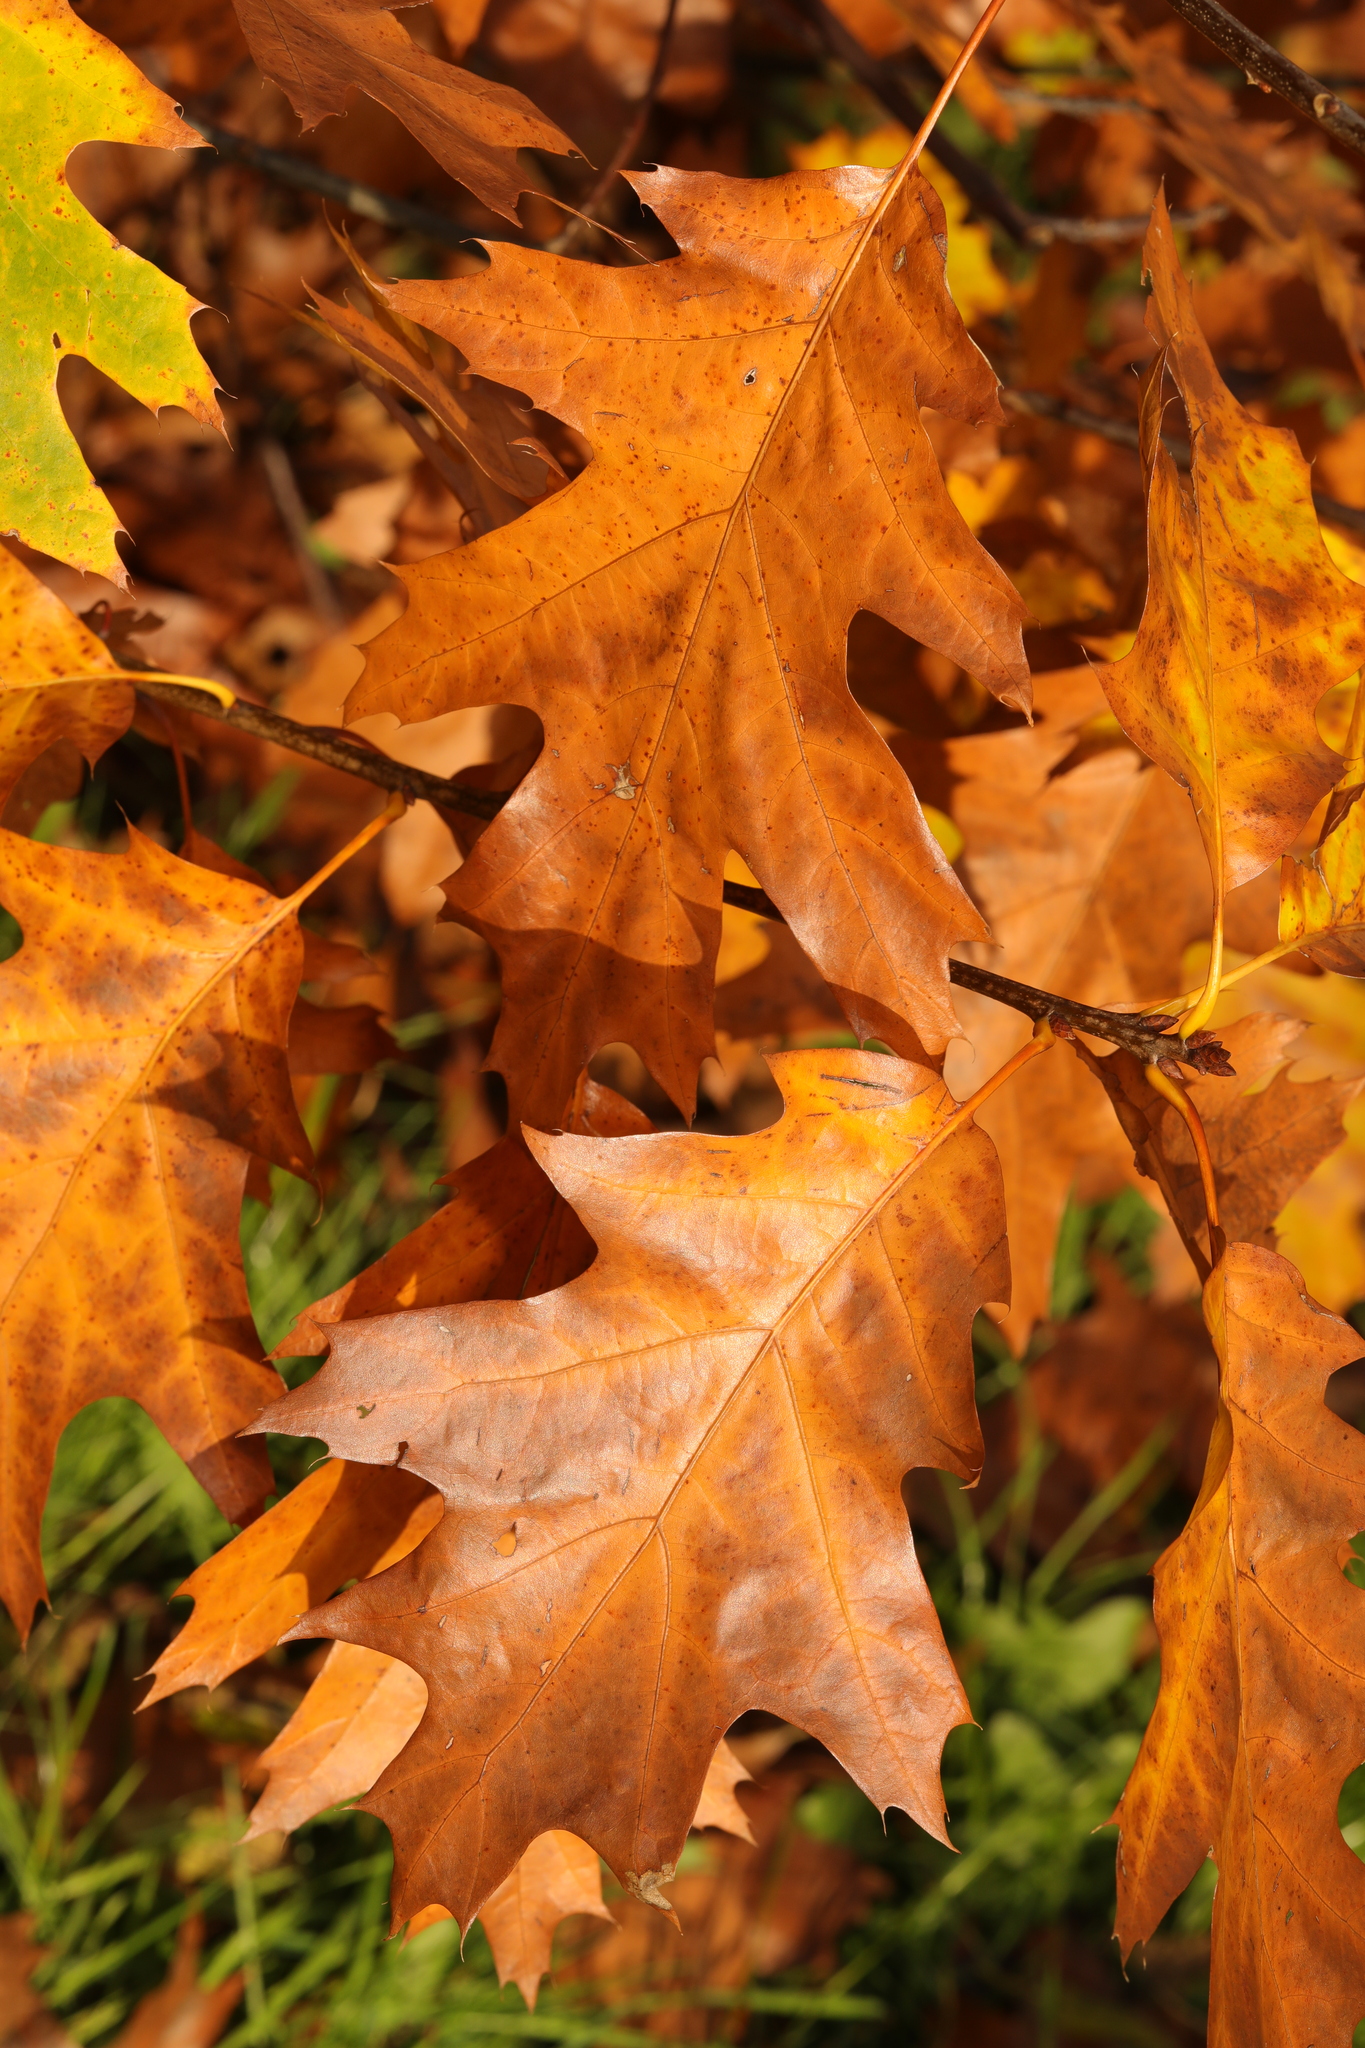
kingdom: Plantae
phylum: Tracheophyta
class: Magnoliopsida
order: Fagales
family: Fagaceae
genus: Quercus
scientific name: Quercus rubra
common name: Red oak
